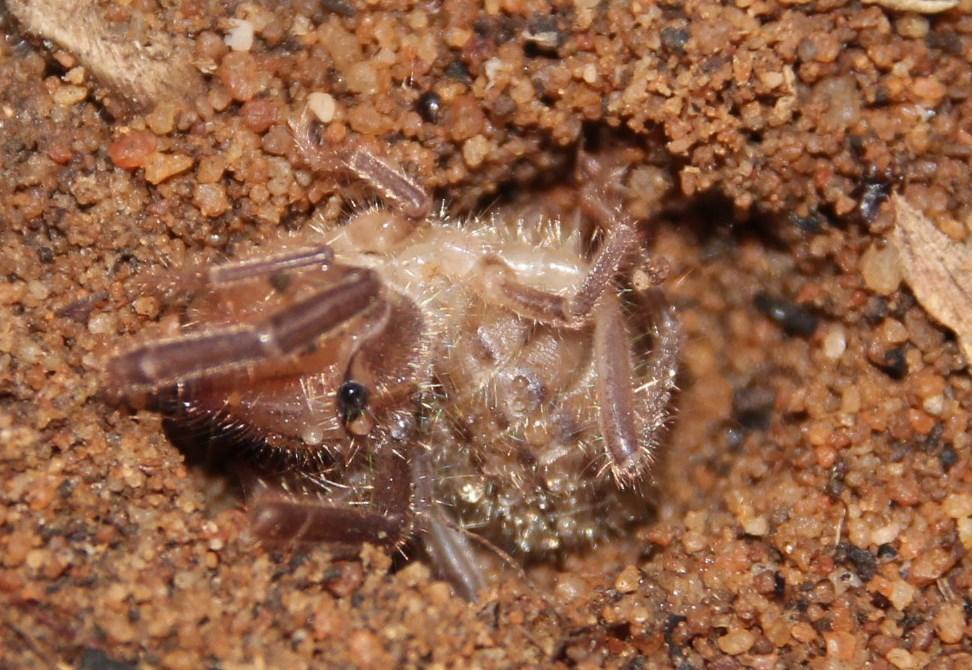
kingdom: Animalia
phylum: Arthropoda
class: Arachnida
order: Solifugae
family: Ceromidae
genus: Ceroma
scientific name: Ceroma pictulum
